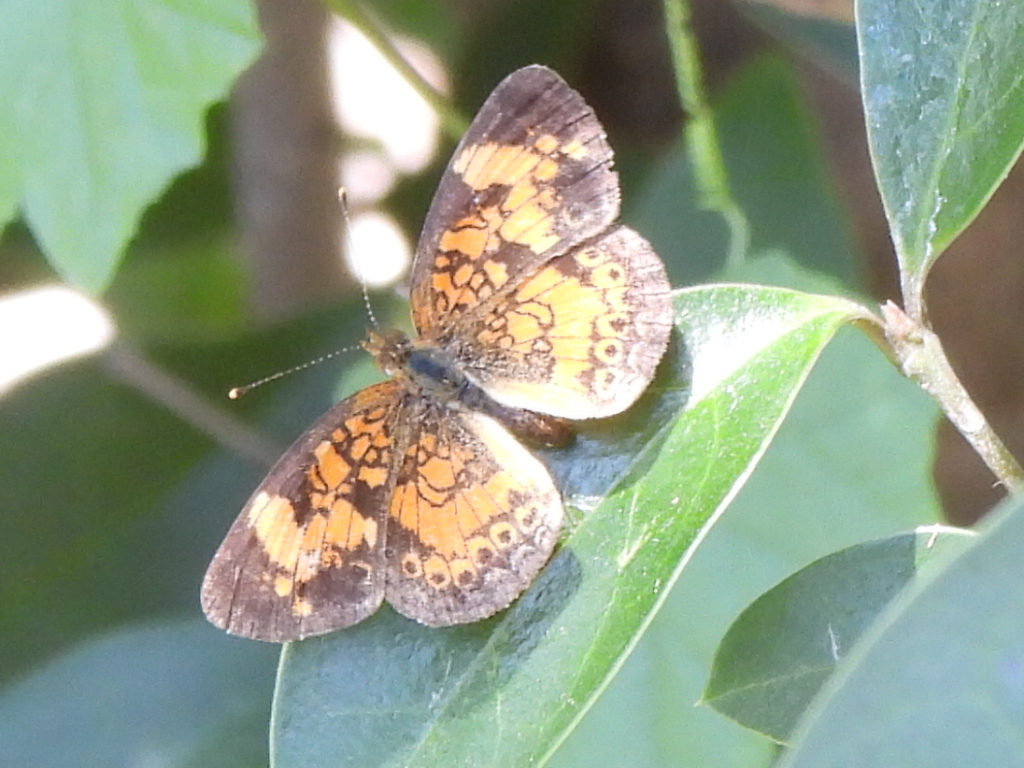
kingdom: Animalia
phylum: Arthropoda
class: Insecta
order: Lepidoptera
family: Nymphalidae
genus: Phyciodes
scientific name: Phyciodes tharos
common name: Pearl crescent
